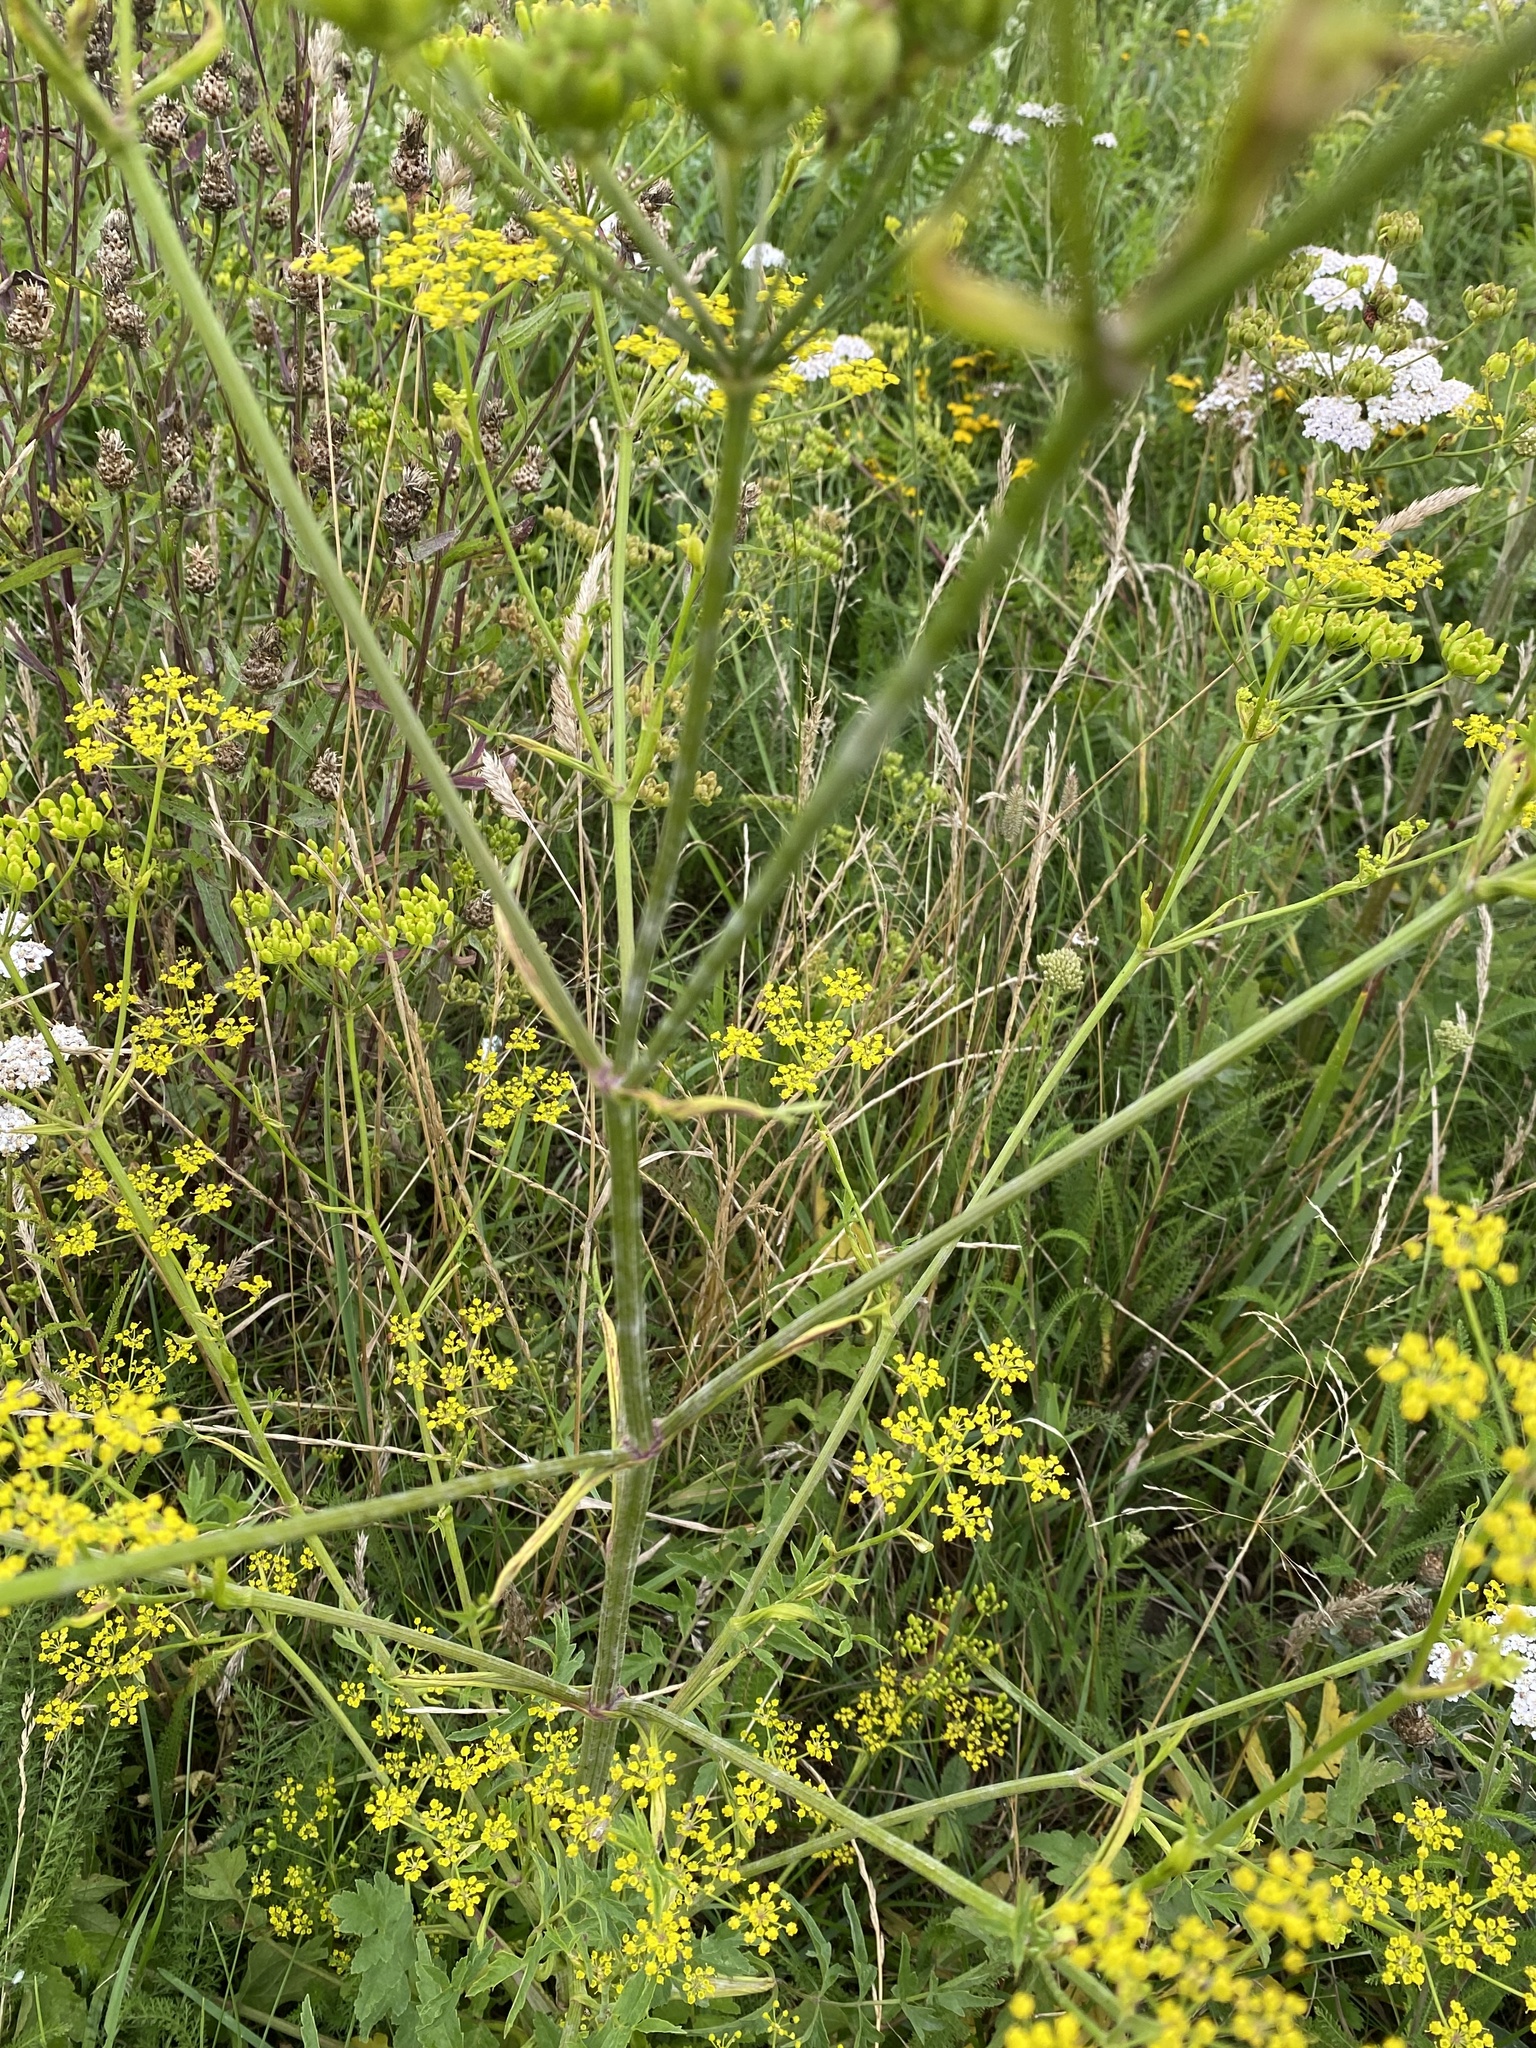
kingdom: Plantae
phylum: Tracheophyta
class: Magnoliopsida
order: Apiales
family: Apiaceae
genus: Pastinaca
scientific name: Pastinaca sativa
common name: Wild parsnip
